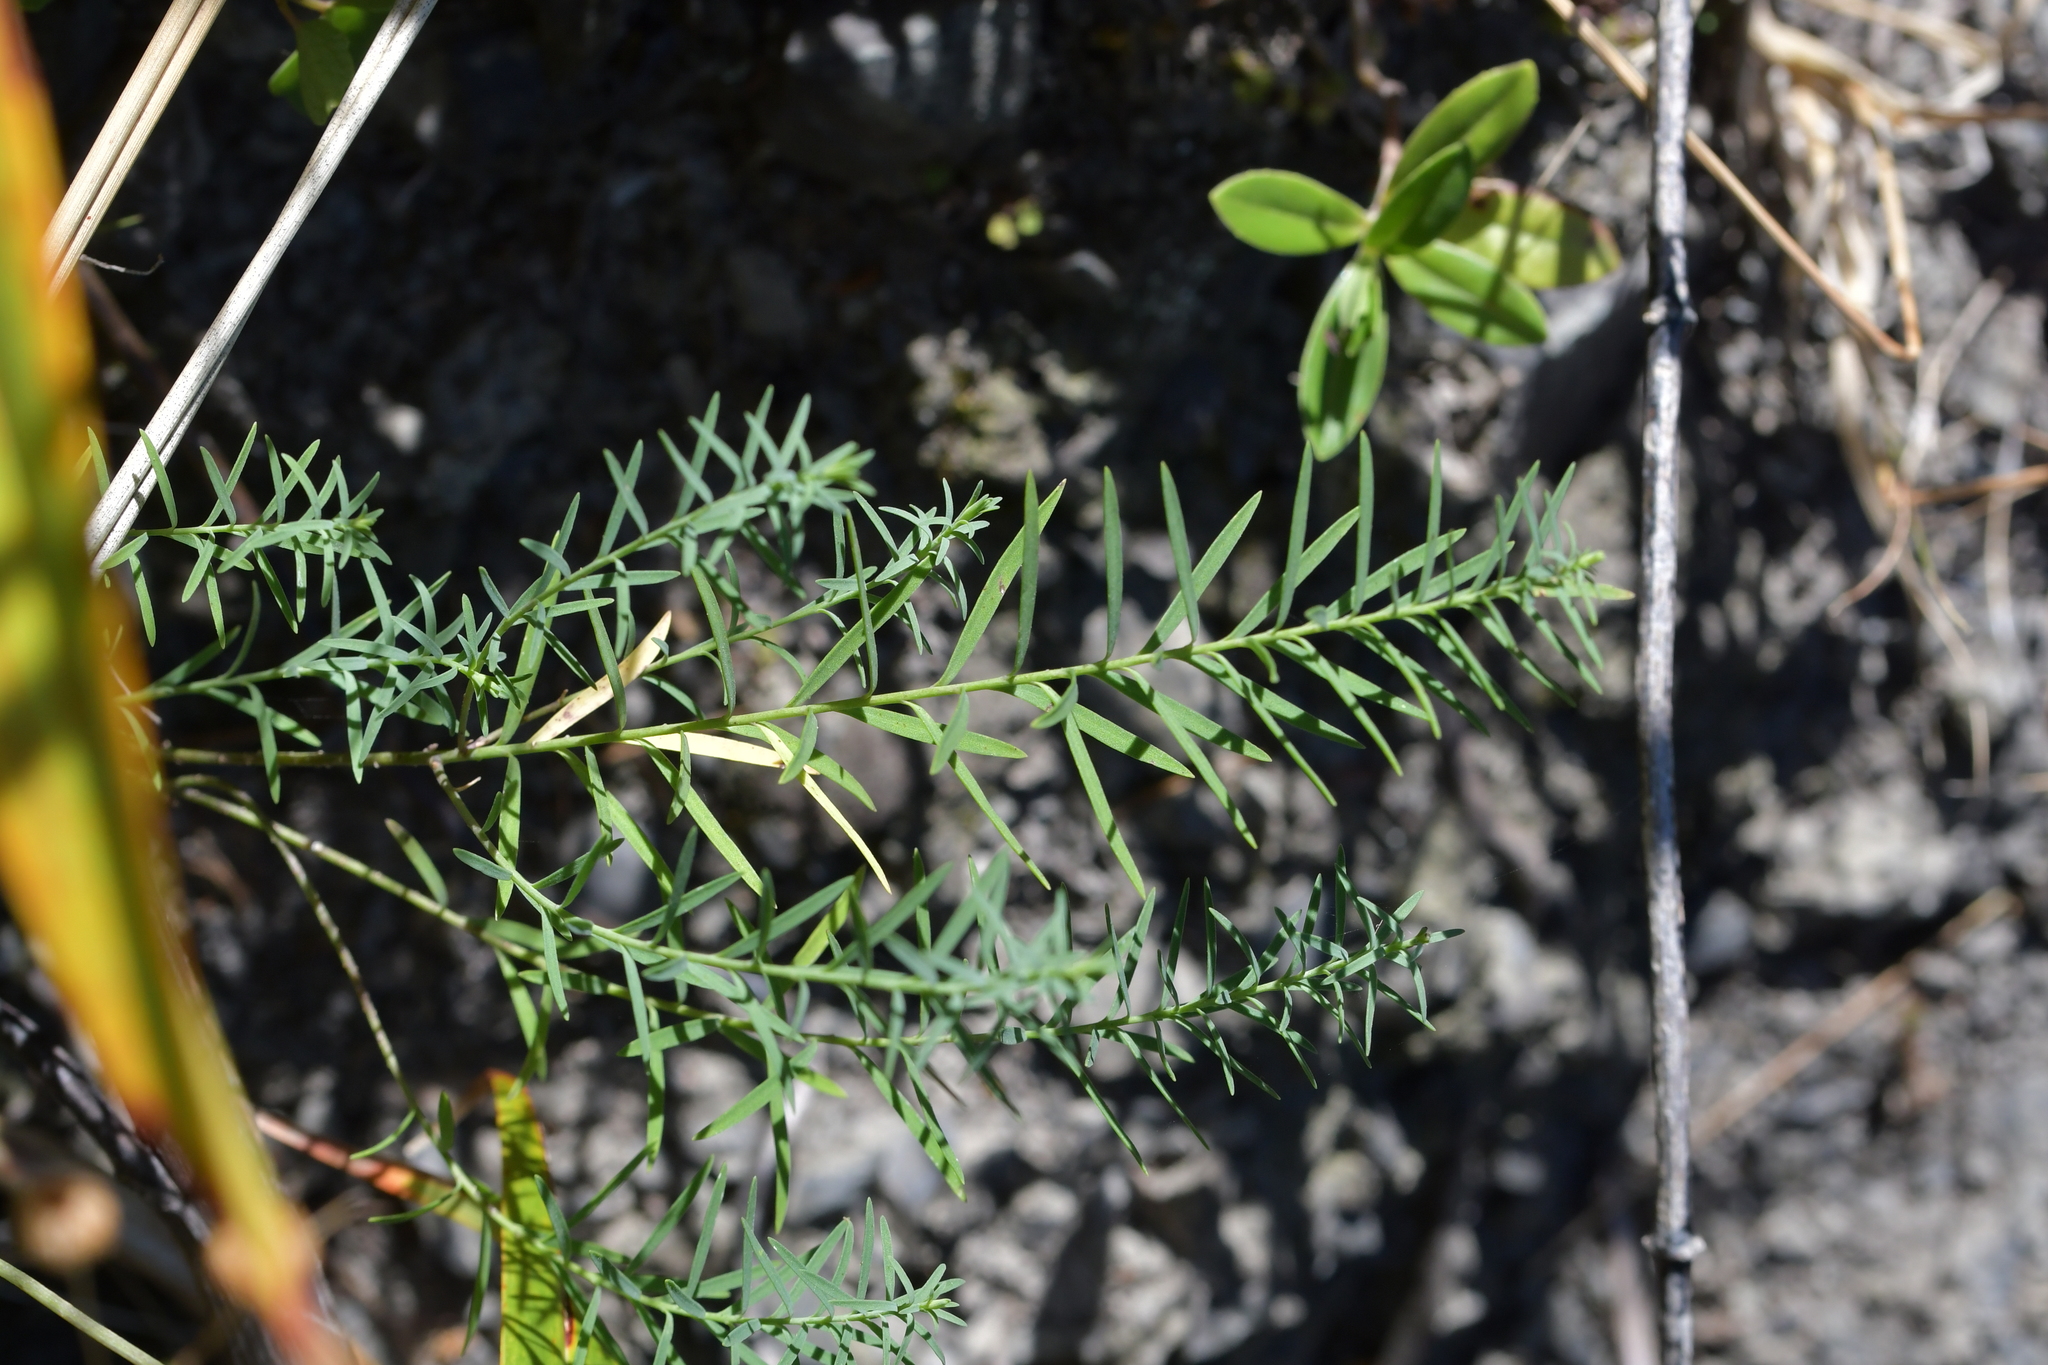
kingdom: Plantae
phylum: Tracheophyta
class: Magnoliopsida
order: Malpighiales
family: Linaceae
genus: Linum
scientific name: Linum monogynum
